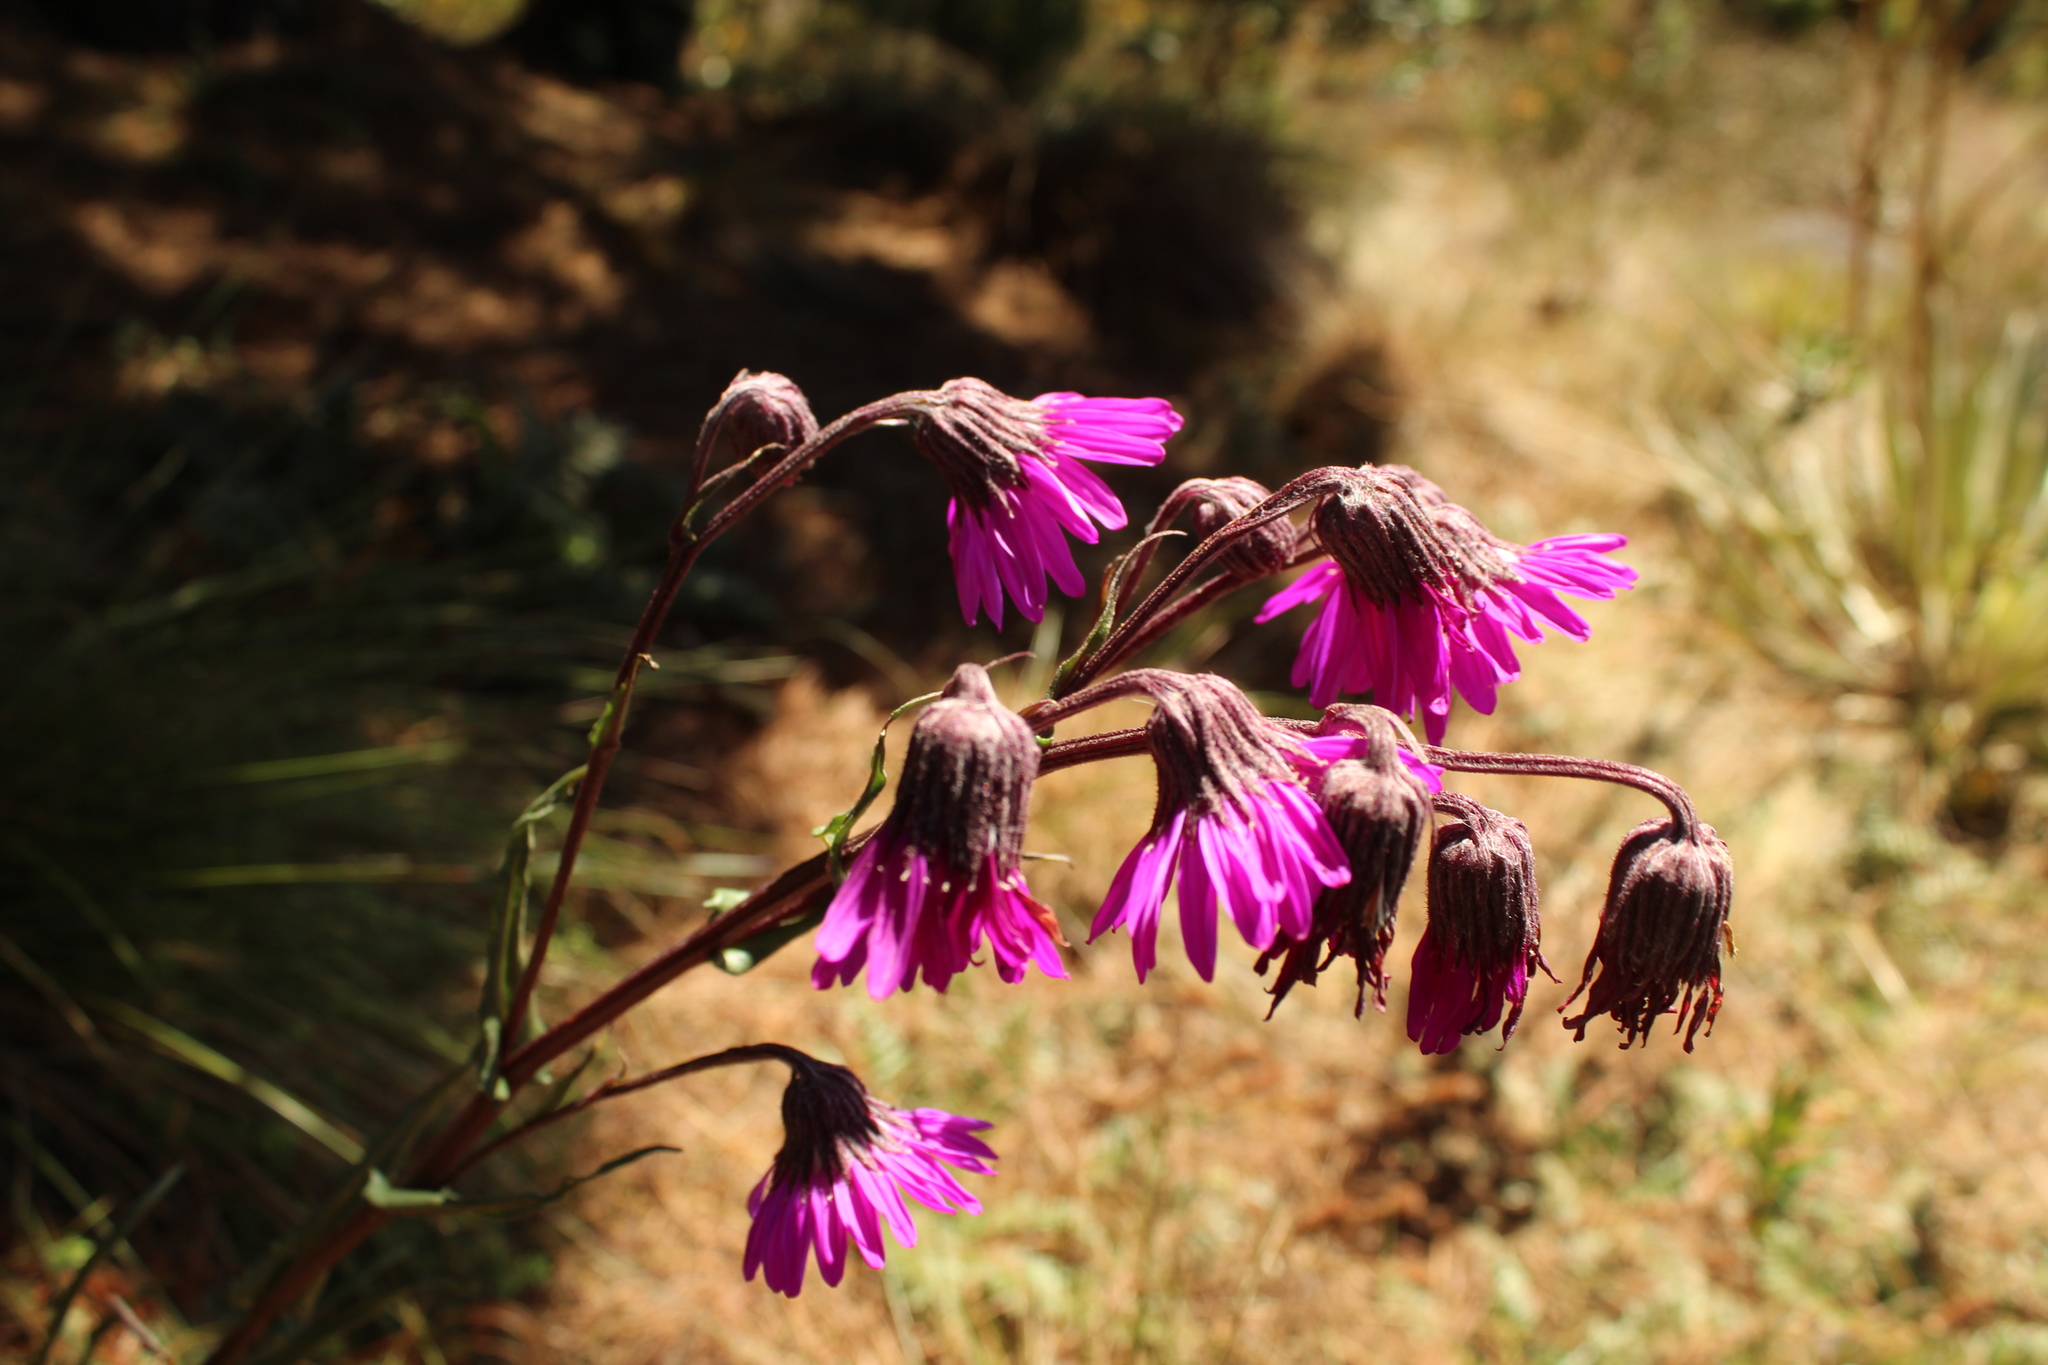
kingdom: Plantae
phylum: Tracheophyta
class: Magnoliopsida
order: Asterales
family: Asteraceae
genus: Senecio
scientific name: Senecio formosoides
